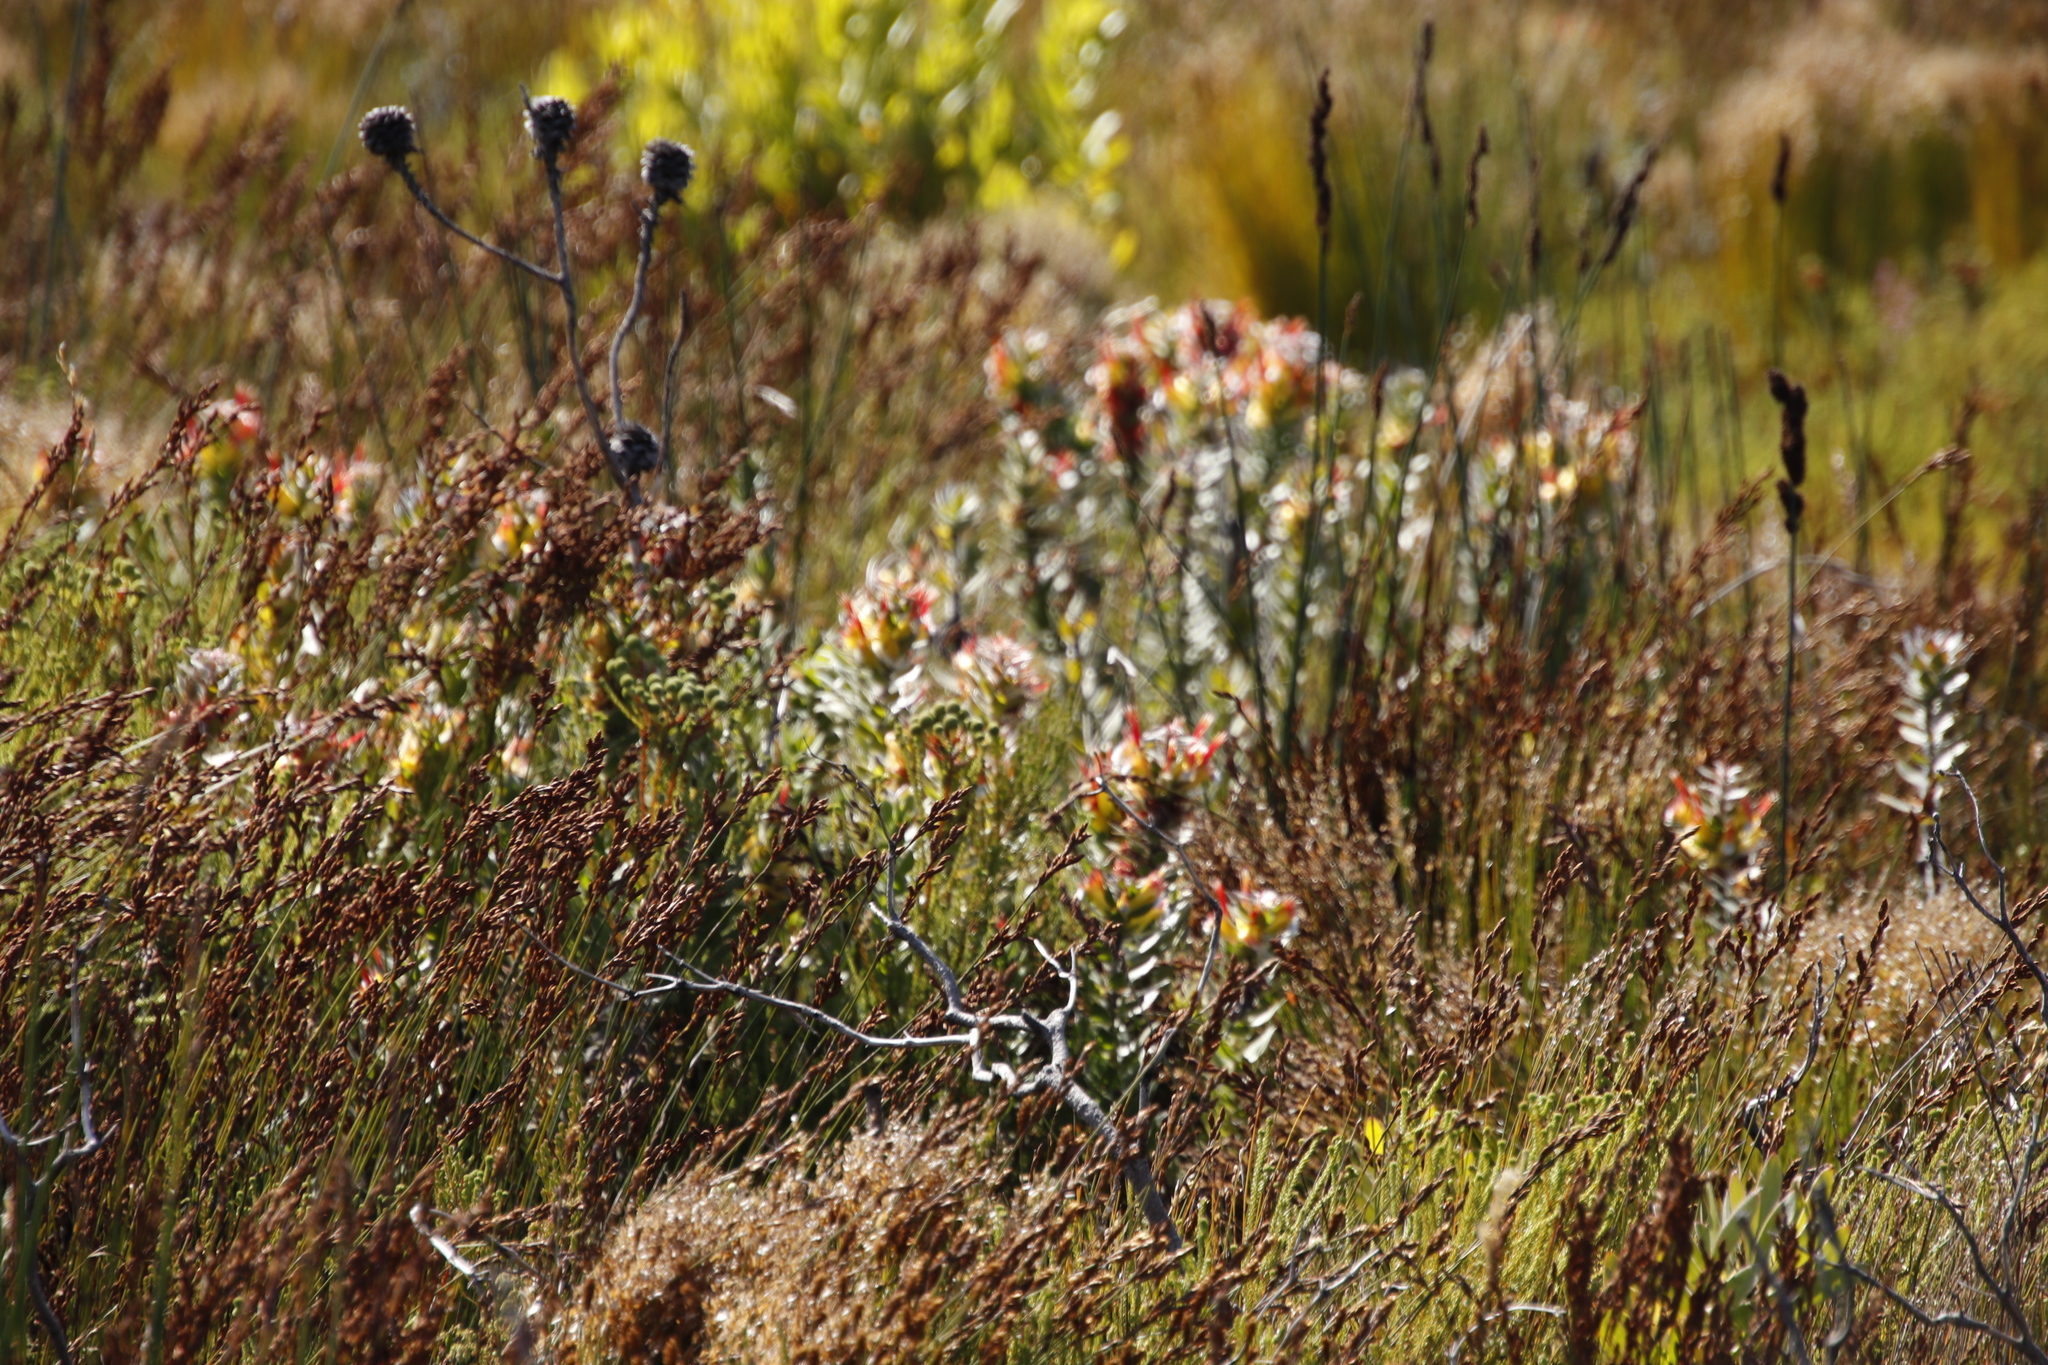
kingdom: Plantae
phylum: Tracheophyta
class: Magnoliopsida
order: Proteales
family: Proteaceae
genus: Mimetes
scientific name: Mimetes hirtus
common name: Marsh pagoda
